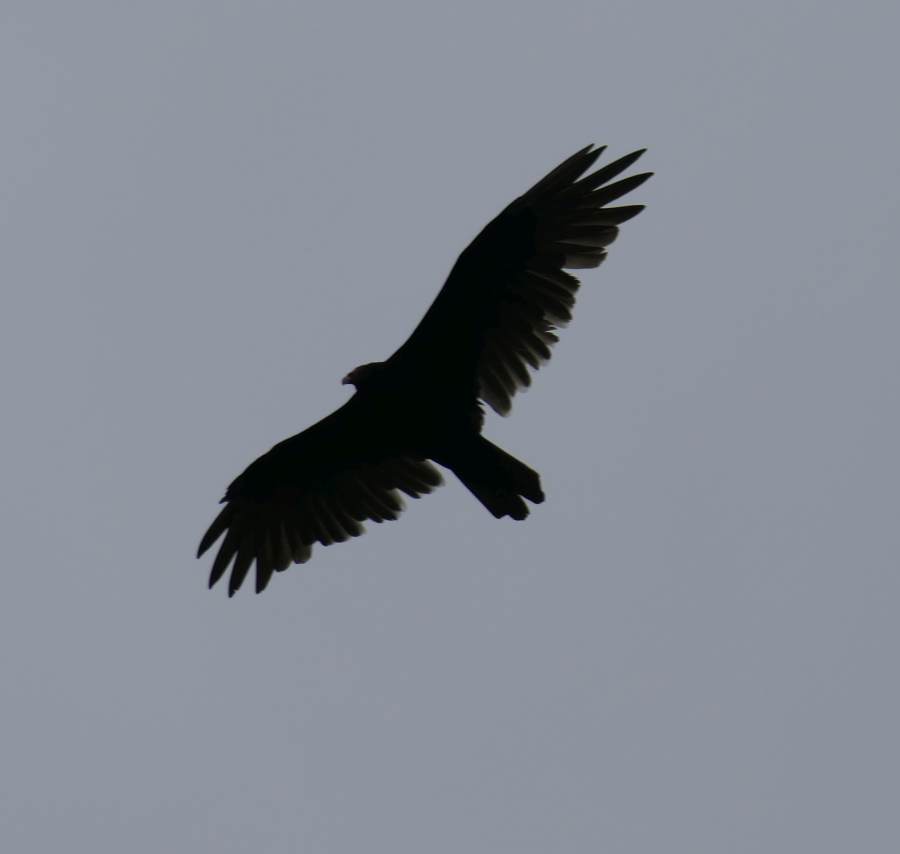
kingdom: Animalia
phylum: Chordata
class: Aves
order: Accipitriformes
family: Cathartidae
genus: Cathartes
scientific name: Cathartes aura
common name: Turkey vulture
